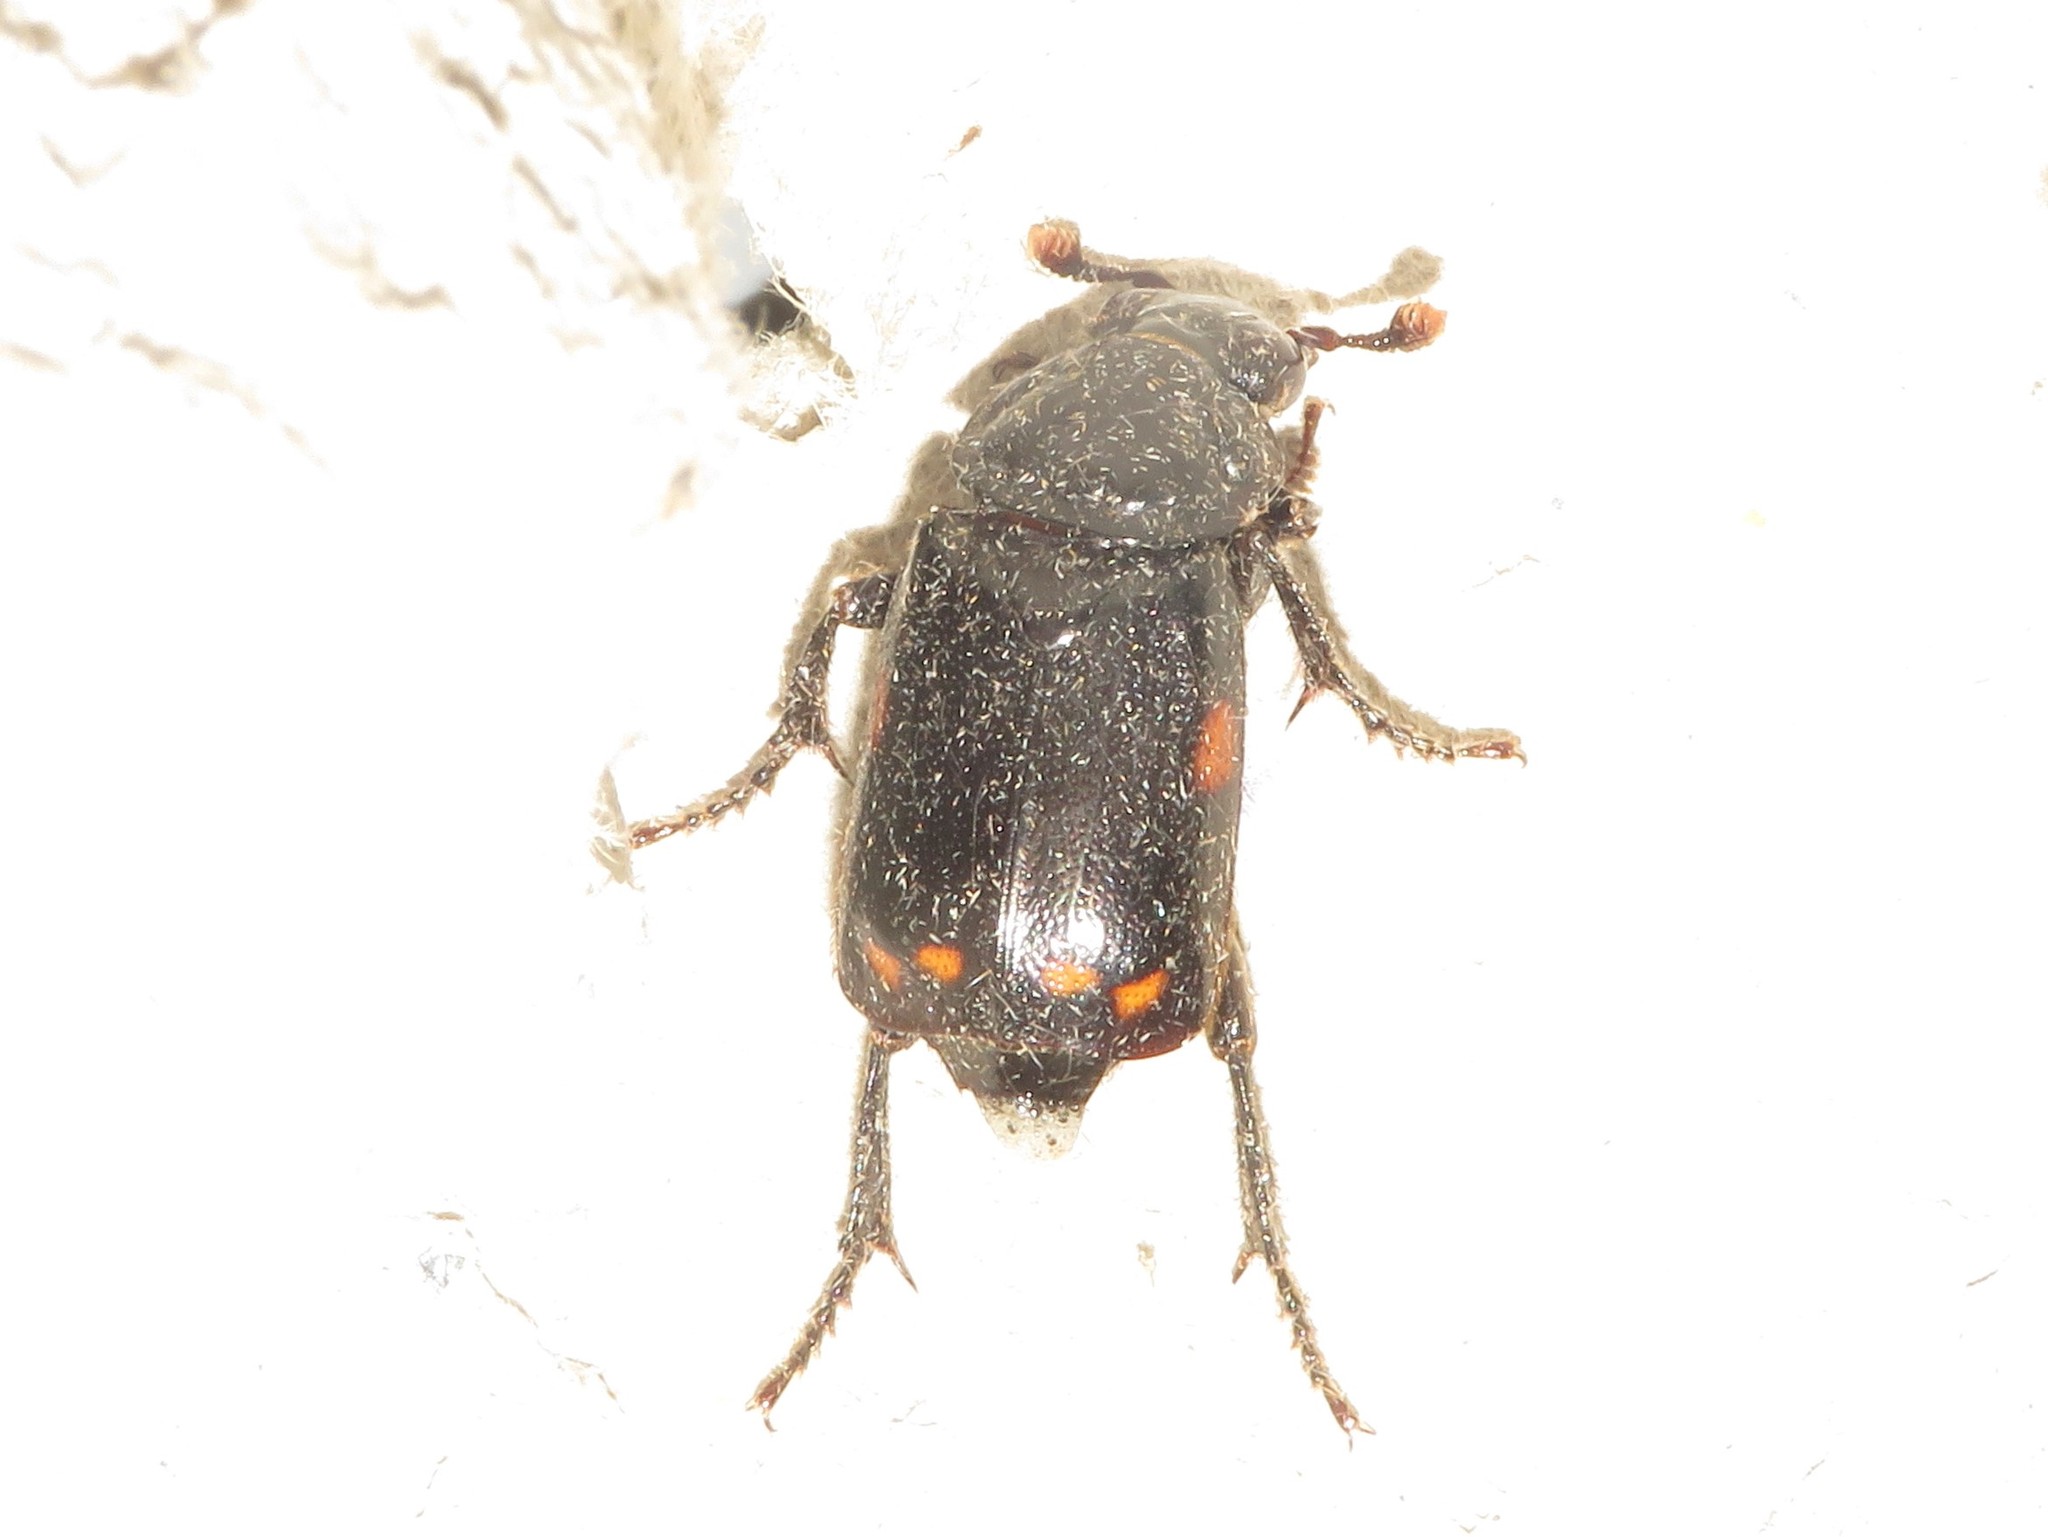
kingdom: Animalia
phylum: Arthropoda
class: Insecta
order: Coleoptera
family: Staphylinidae
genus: Nicrophorus
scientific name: Nicrophorus pustulatus
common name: Pustulated carrion beetle
